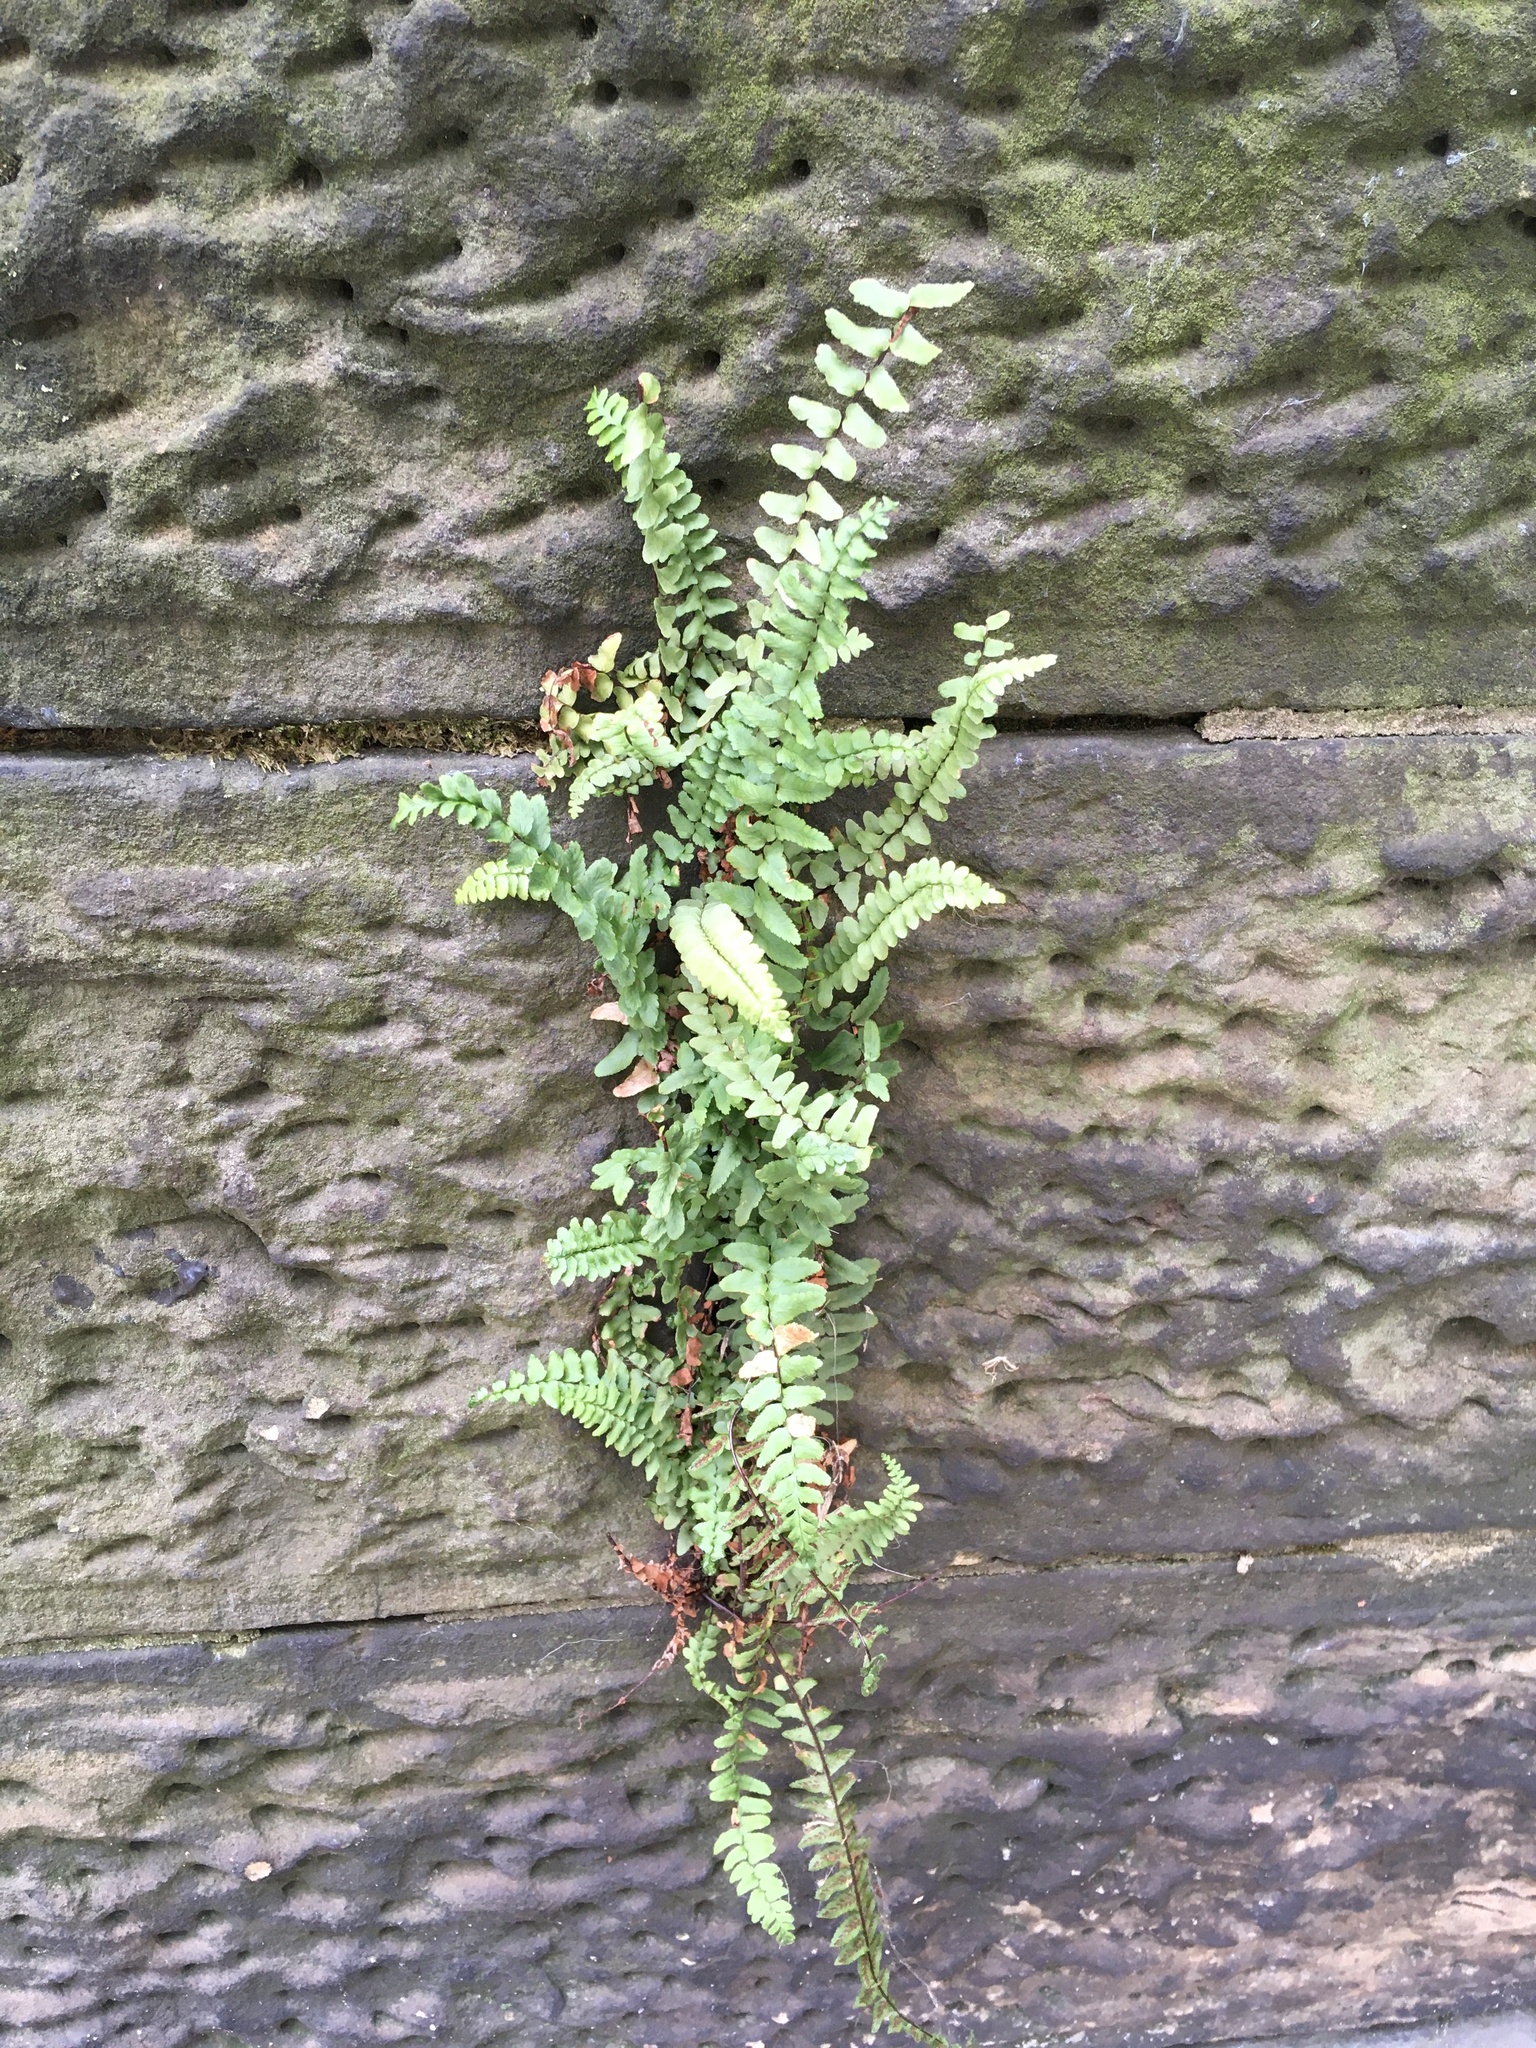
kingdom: Plantae
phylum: Tracheophyta
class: Polypodiopsida
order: Polypodiales
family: Aspleniaceae
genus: Asplenium
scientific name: Asplenium platyneuron
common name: Ebony spleenwort
